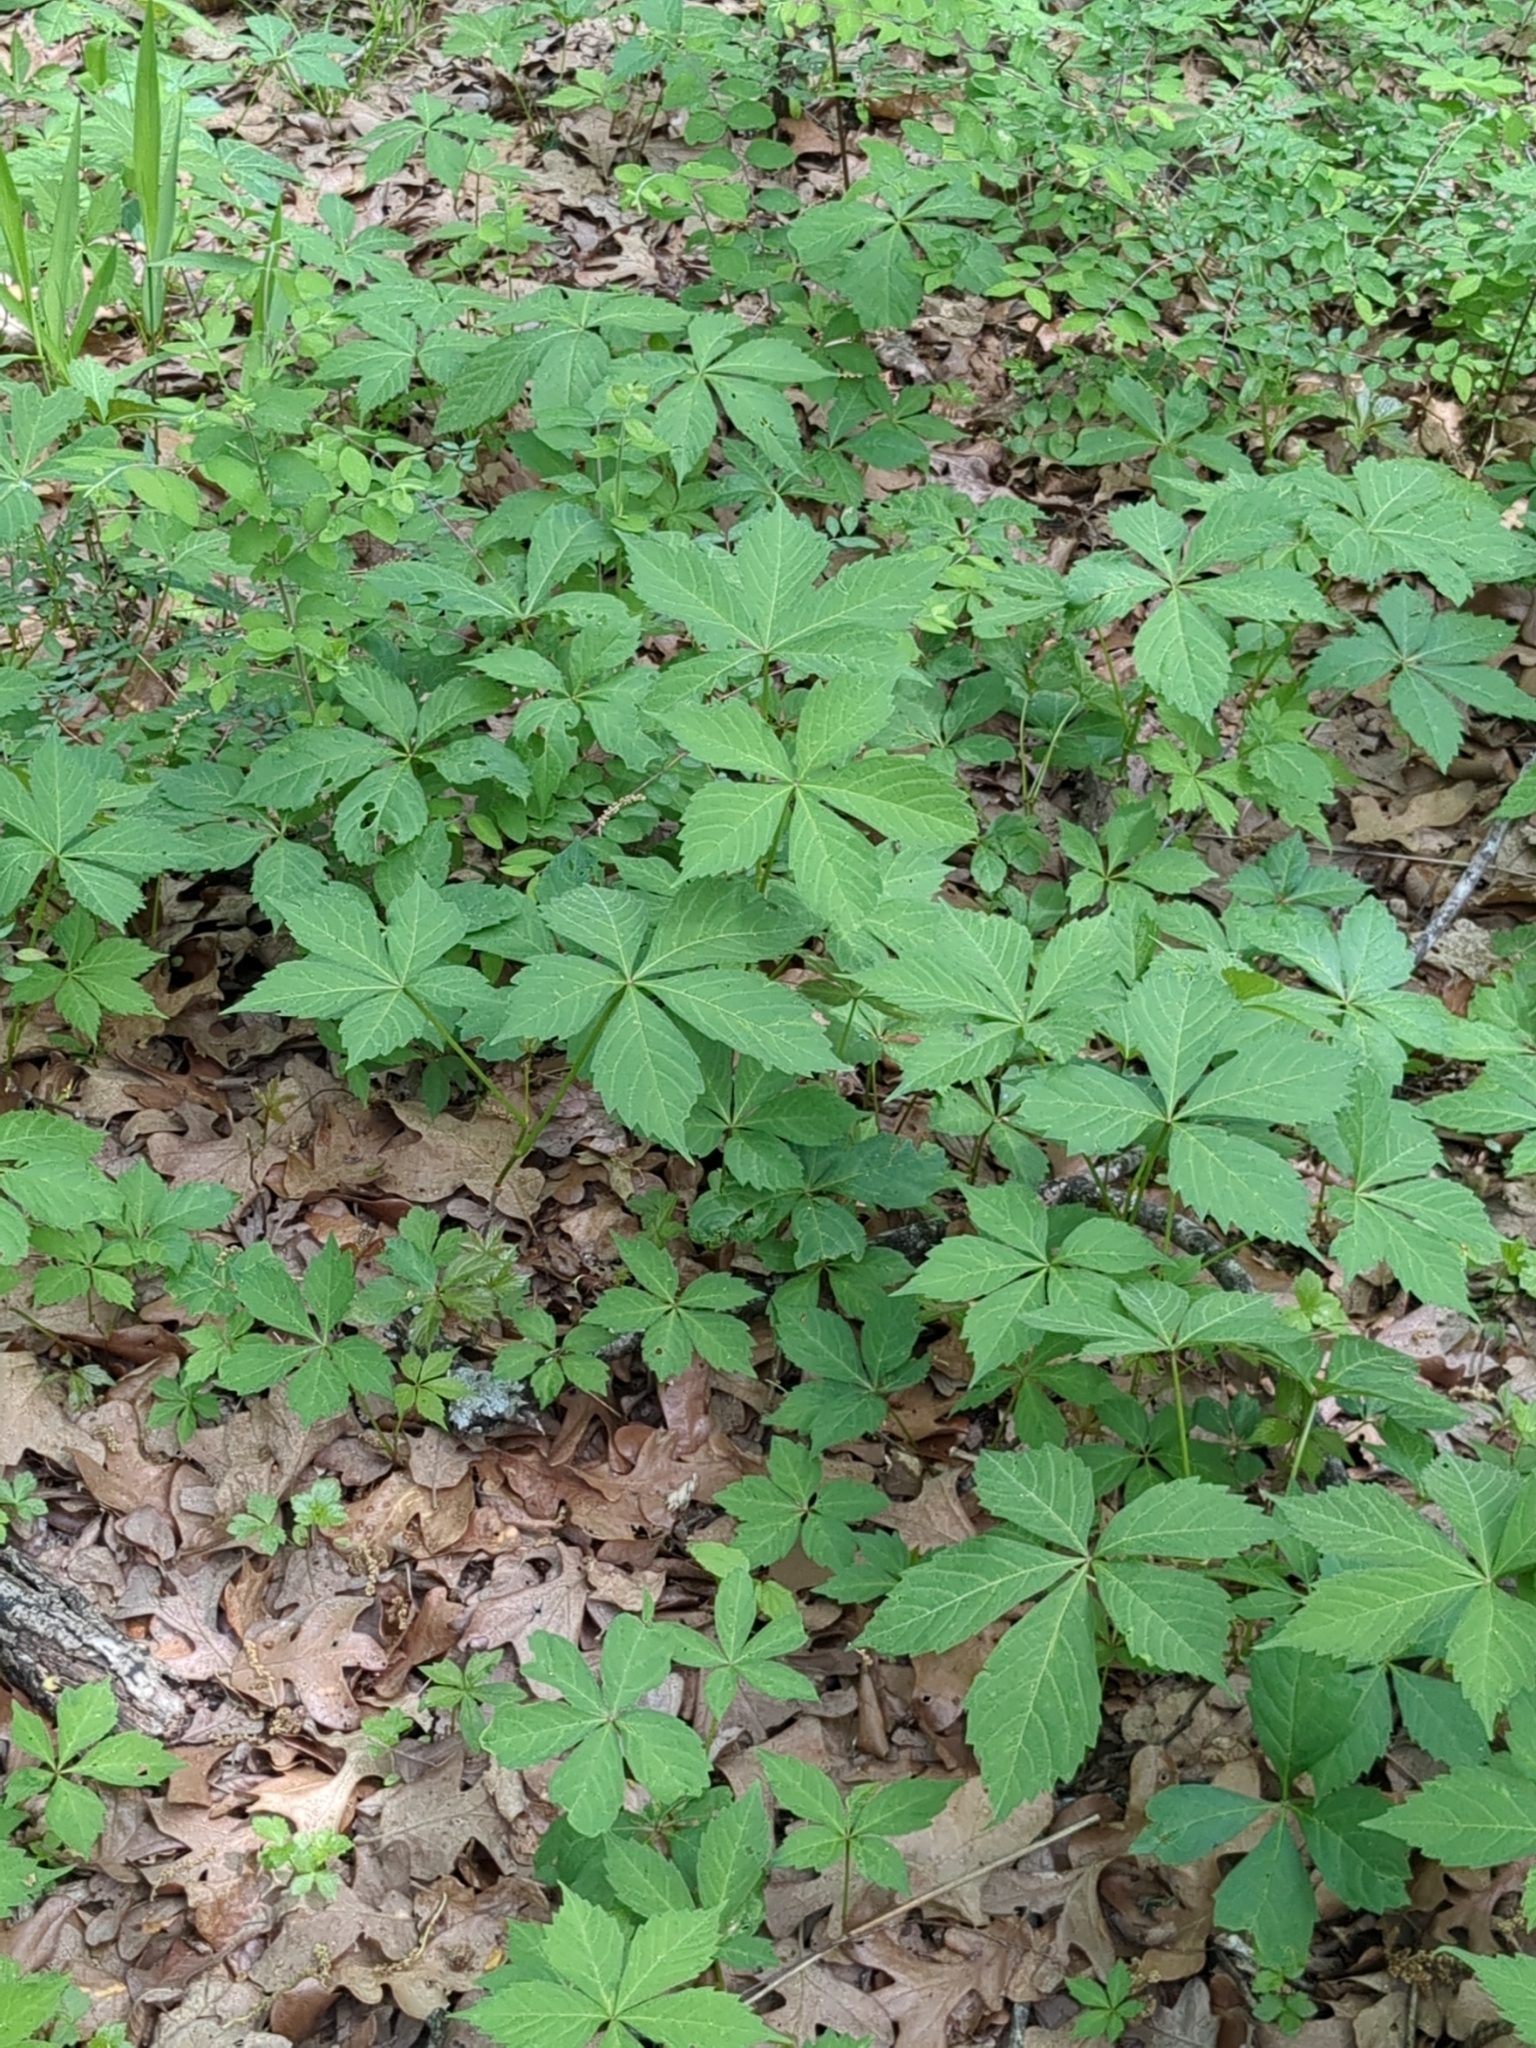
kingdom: Plantae
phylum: Tracheophyta
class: Magnoliopsida
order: Vitales
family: Vitaceae
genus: Parthenocissus
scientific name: Parthenocissus quinquefolia
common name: Virginia-creeper
